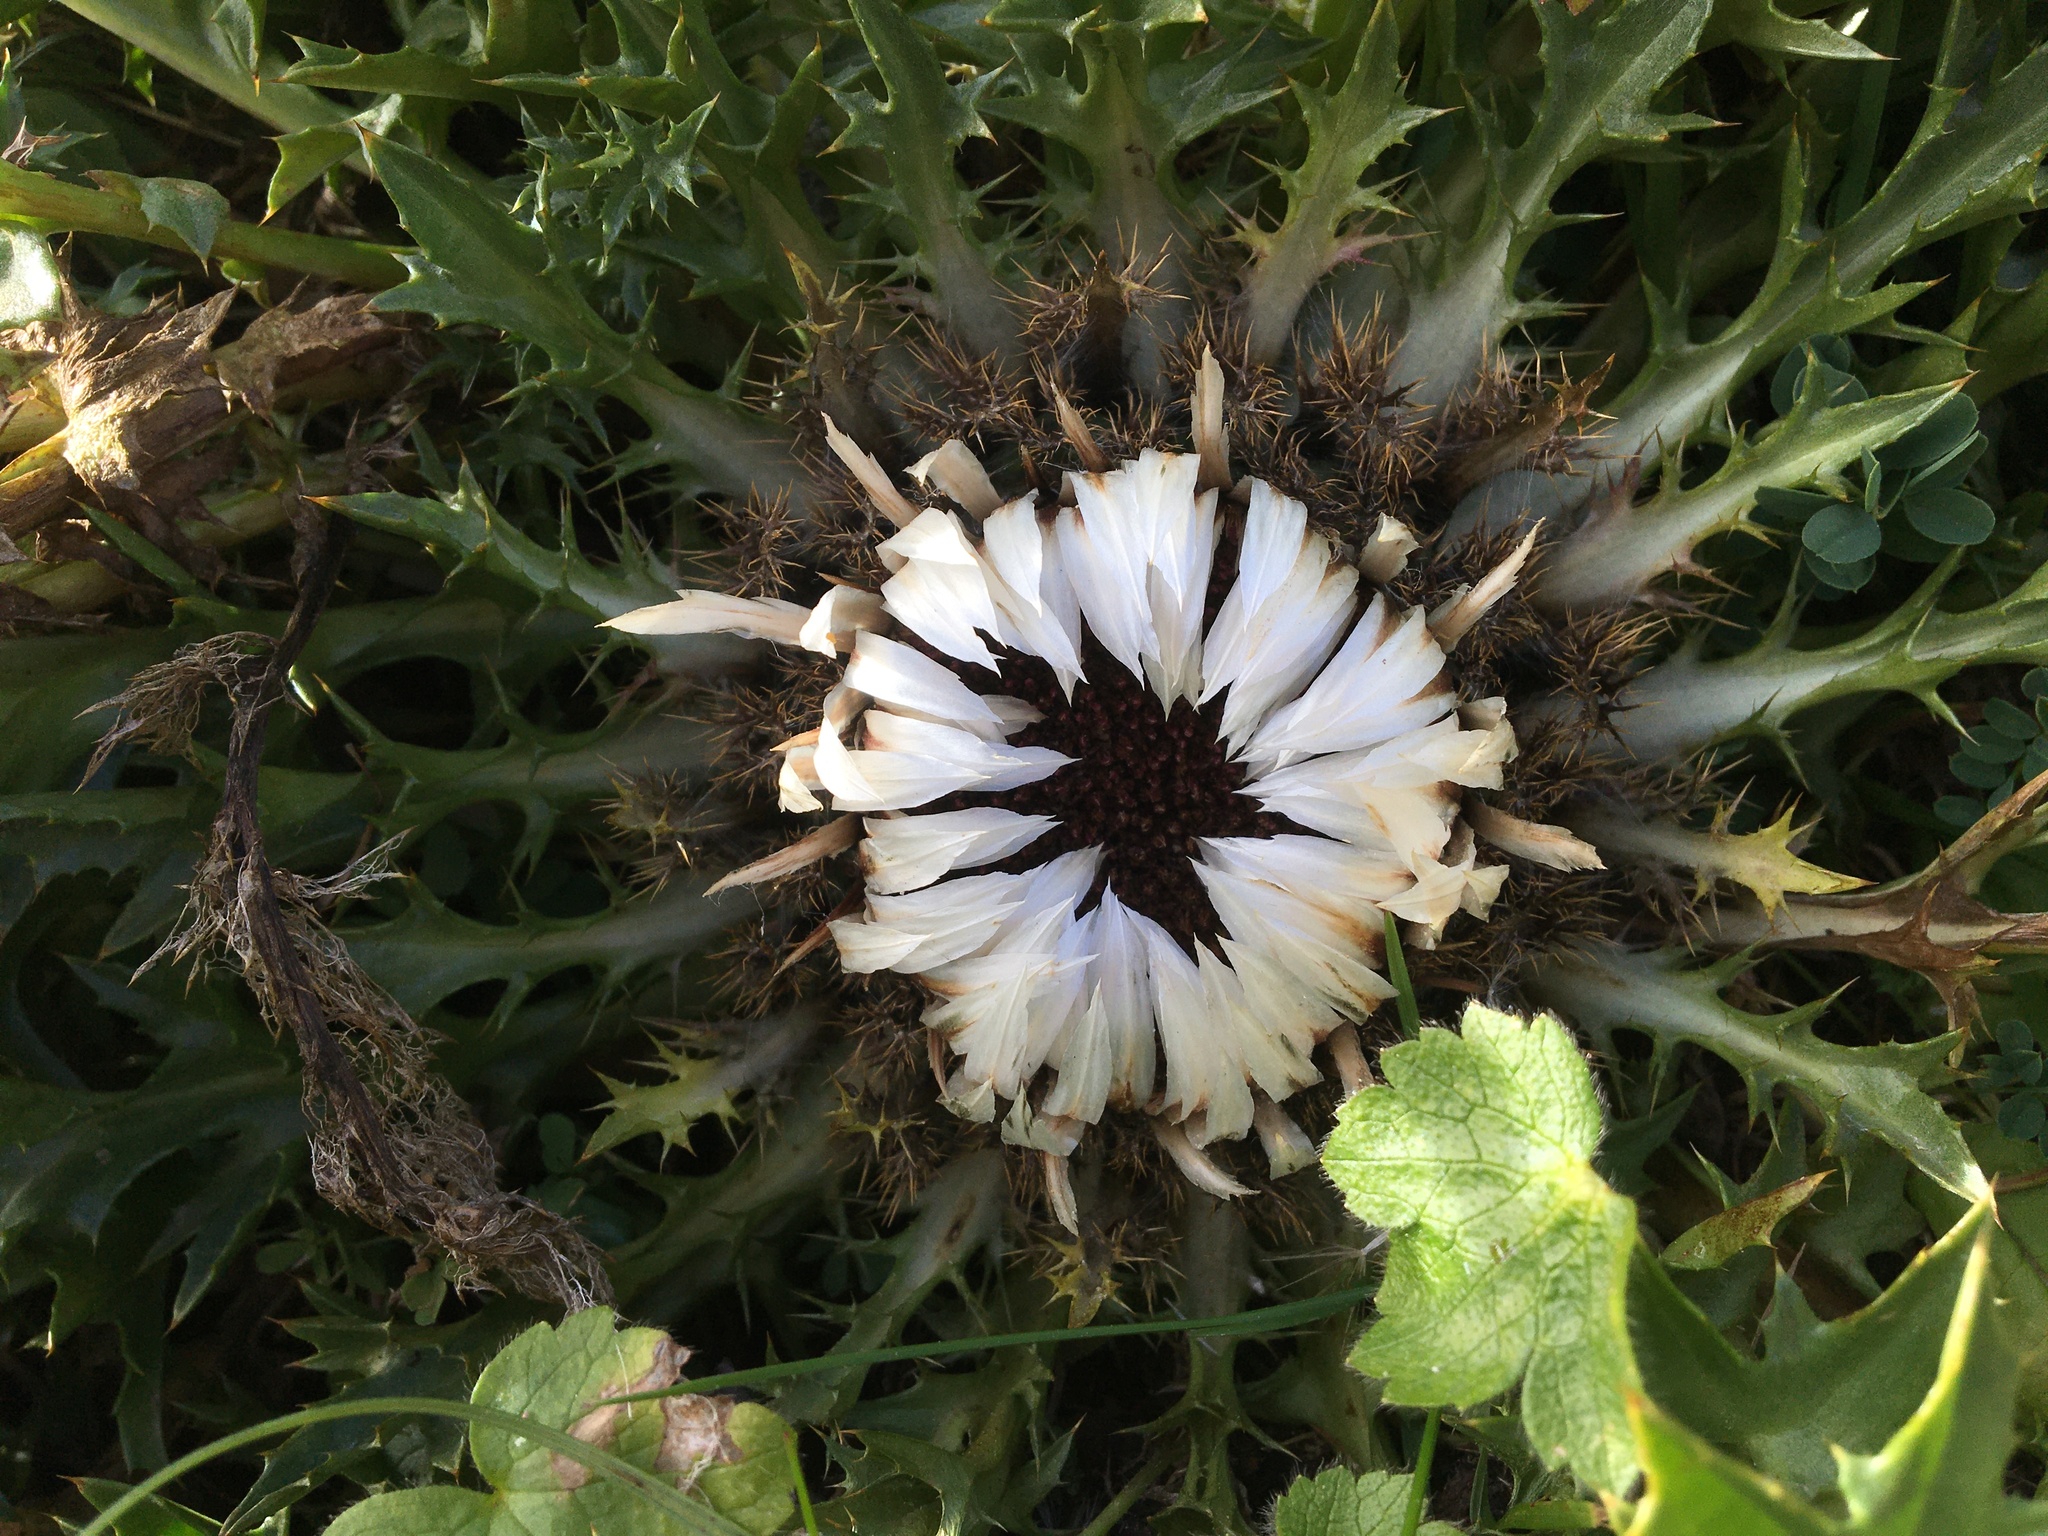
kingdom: Plantae
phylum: Tracheophyta
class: Magnoliopsida
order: Asterales
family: Asteraceae
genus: Carlina
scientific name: Carlina acaulis
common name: Stemless carline thistle
